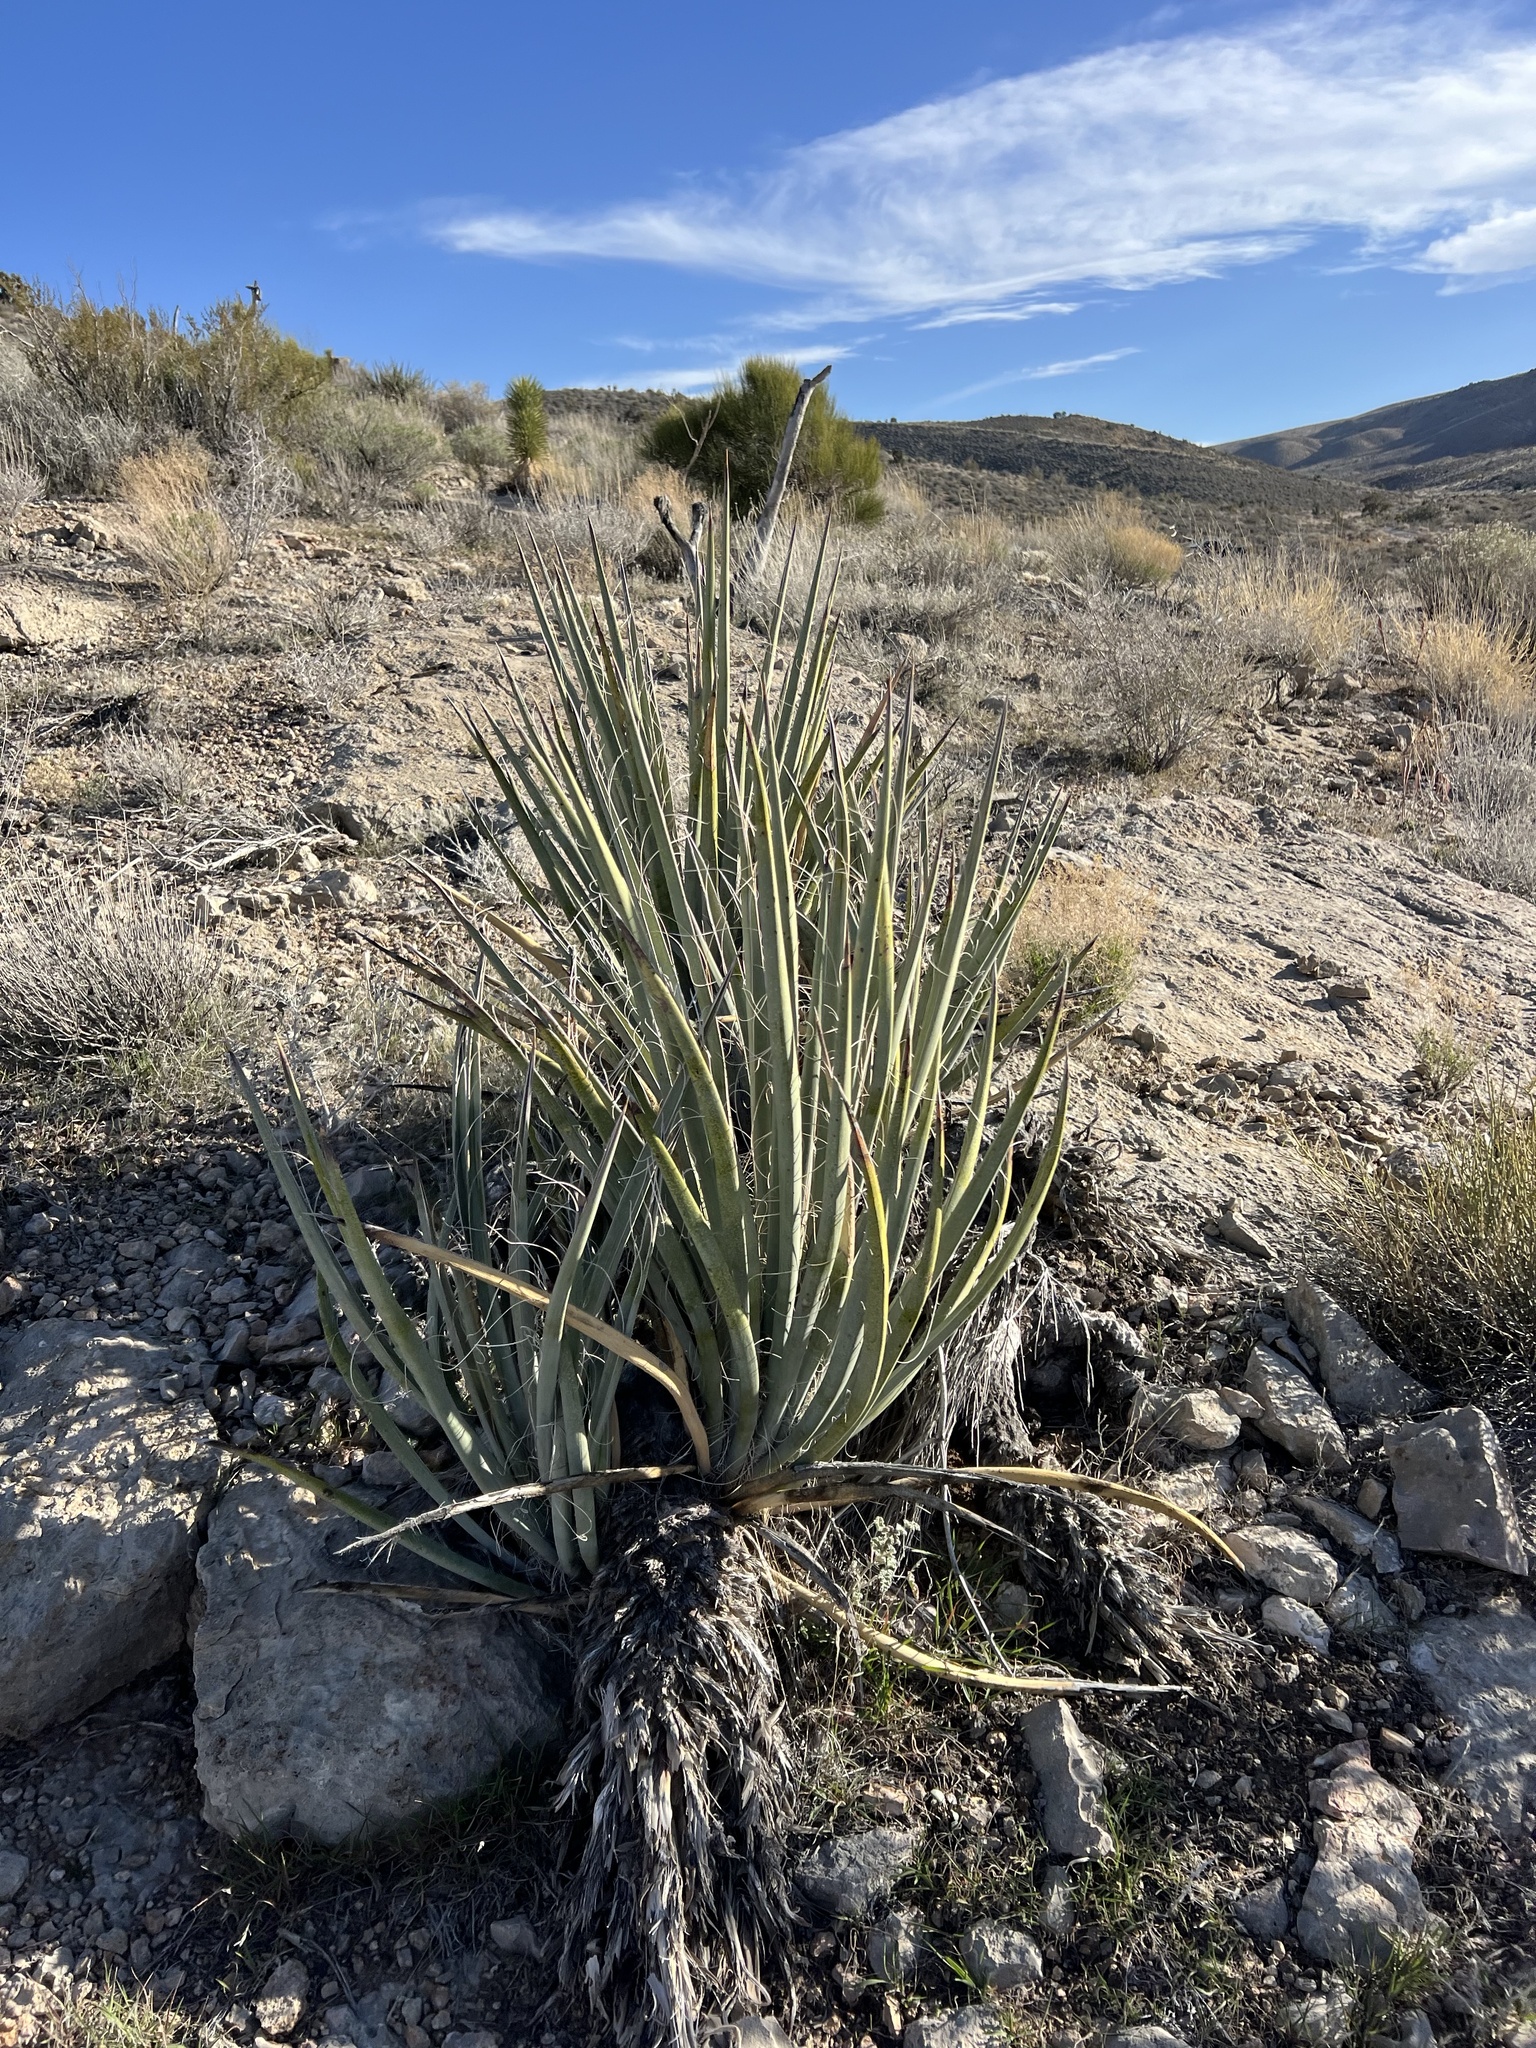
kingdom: Plantae
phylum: Tracheophyta
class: Liliopsida
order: Asparagales
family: Asparagaceae
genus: Yucca
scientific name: Yucca baccata
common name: Banana yucca
